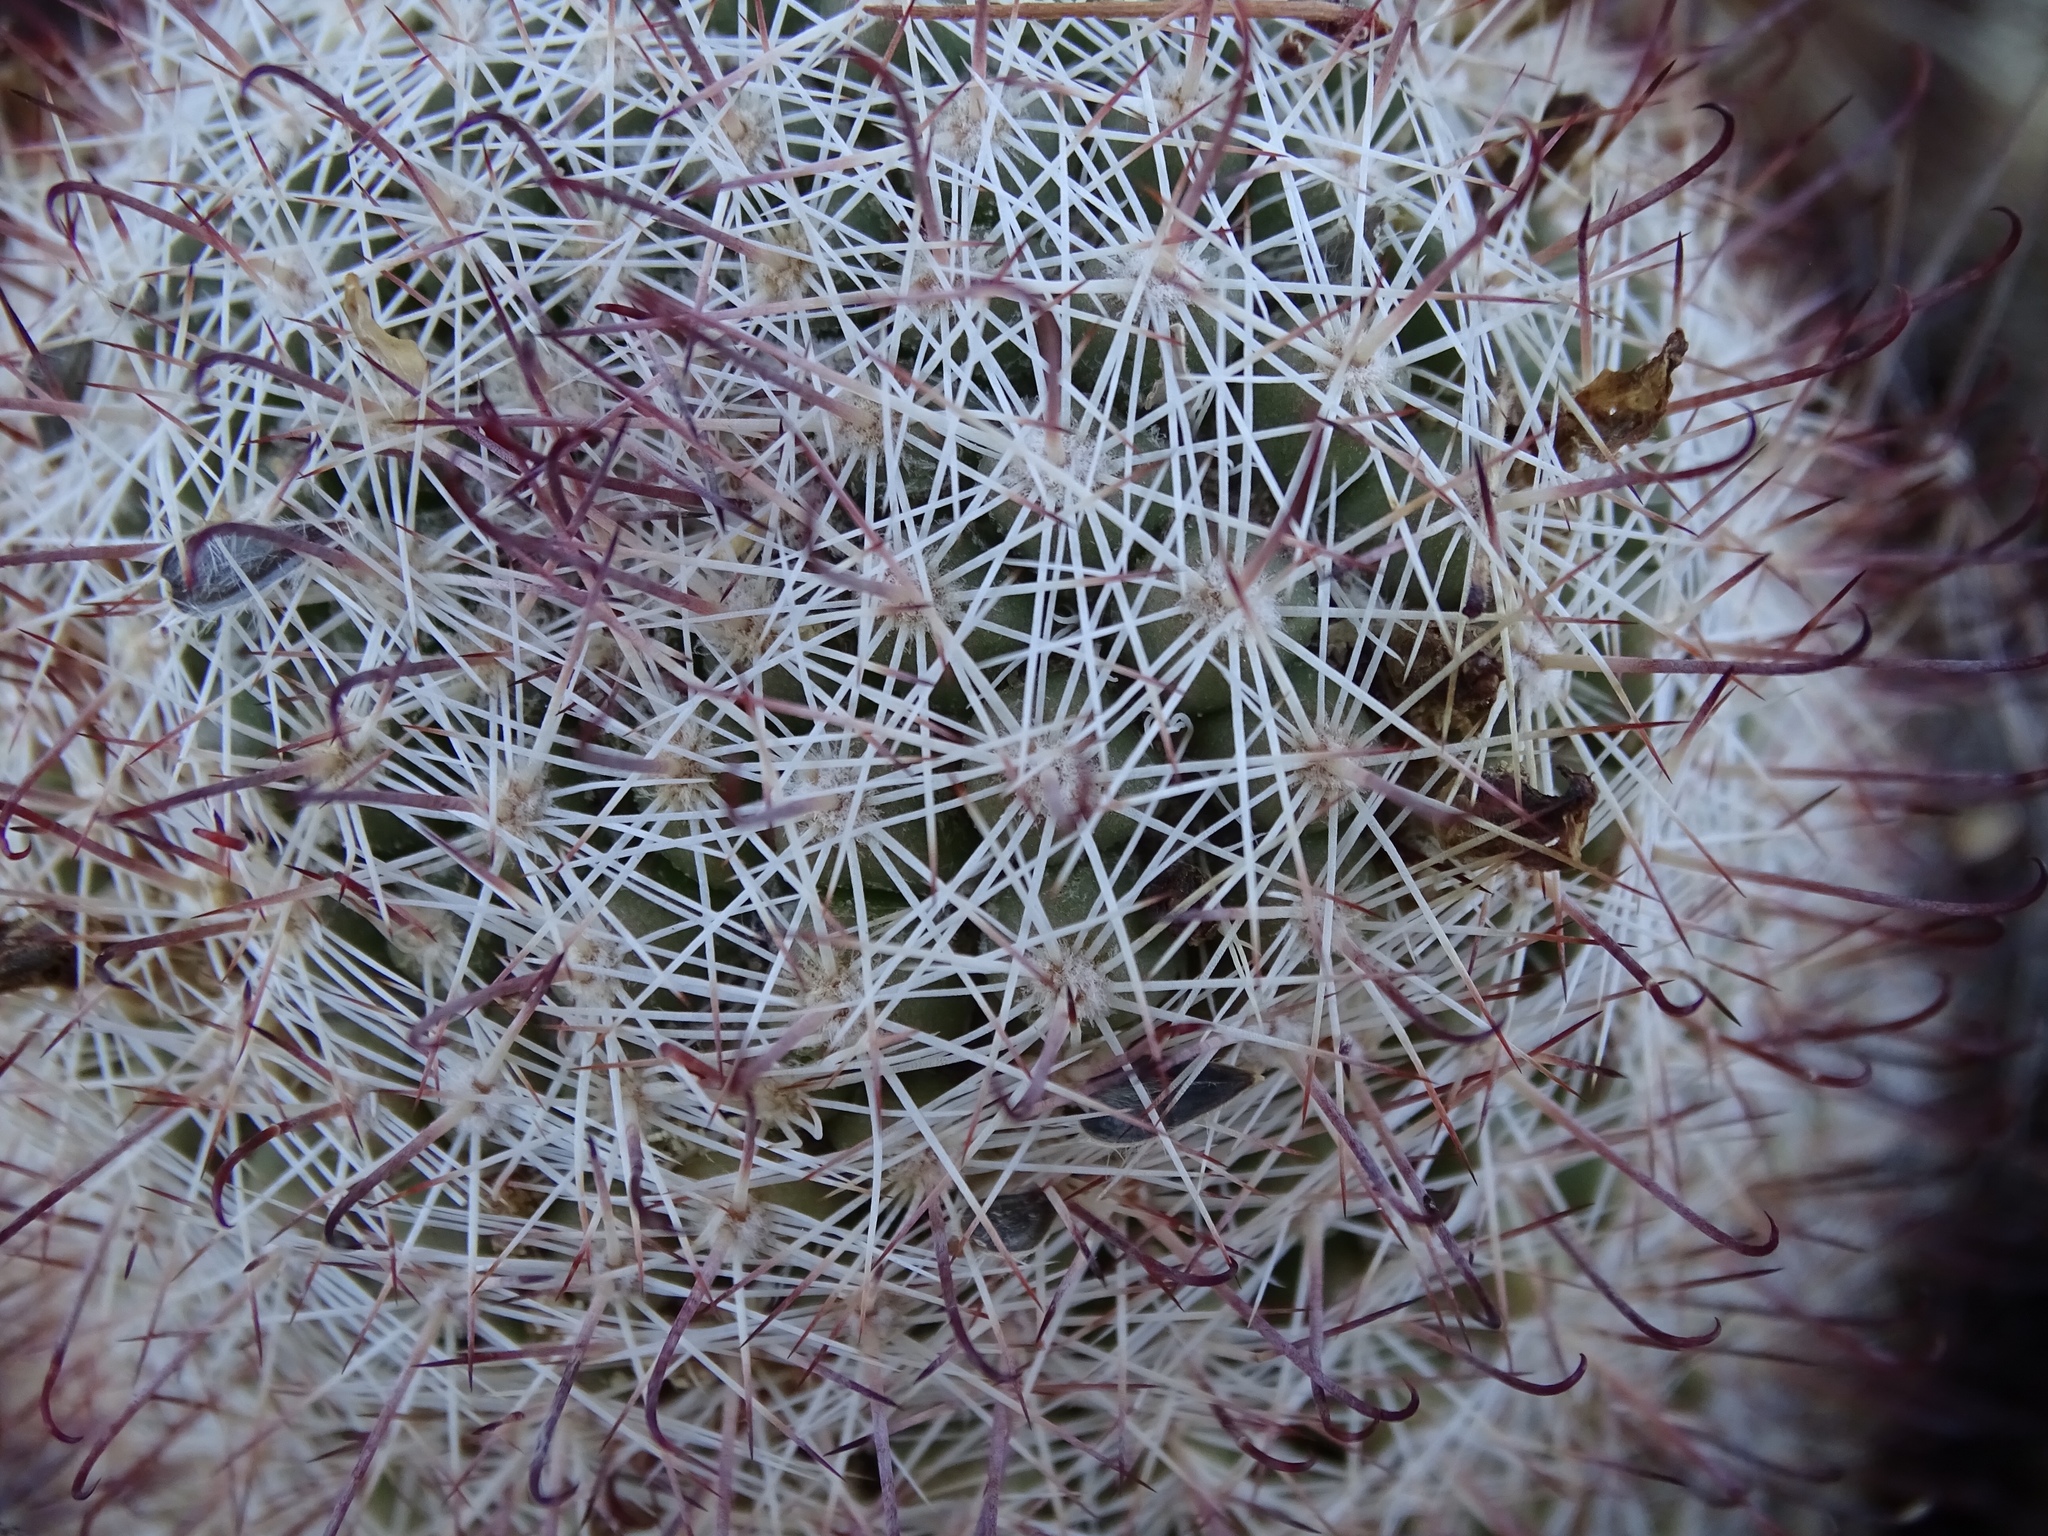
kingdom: Plantae
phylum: Tracheophyta
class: Magnoliopsida
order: Caryophyllales
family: Cactaceae
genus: Cochemiea
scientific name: Cochemiea dioica
